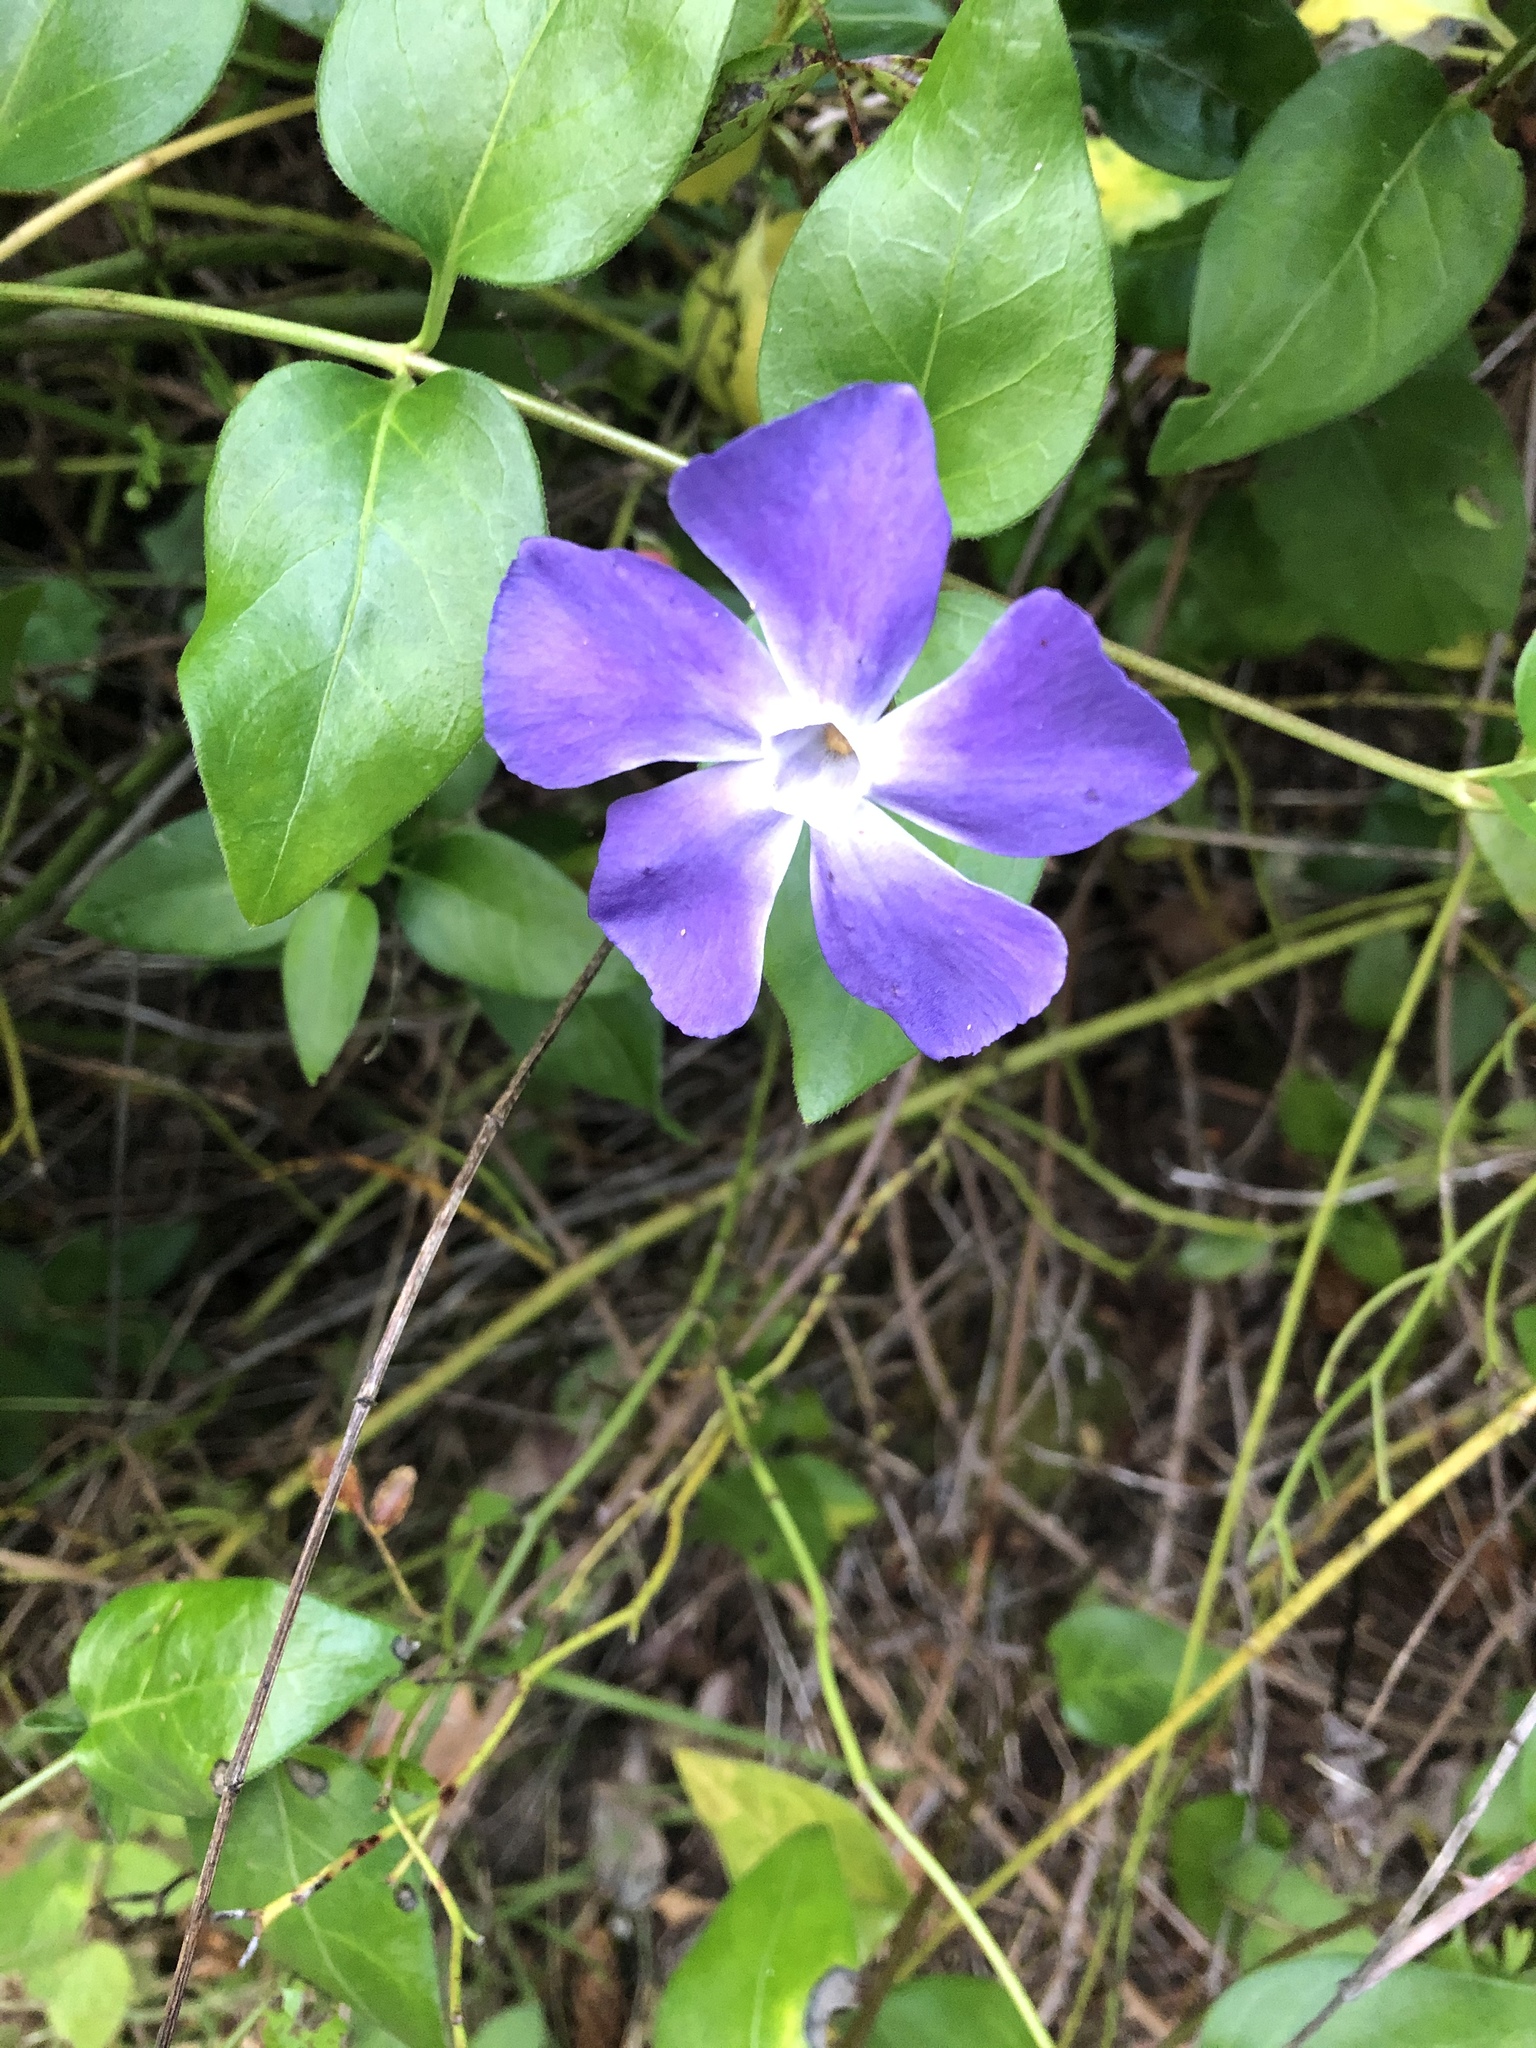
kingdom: Plantae
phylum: Tracheophyta
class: Magnoliopsida
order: Gentianales
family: Apocynaceae
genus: Vinca
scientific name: Vinca major
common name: Greater periwinkle
